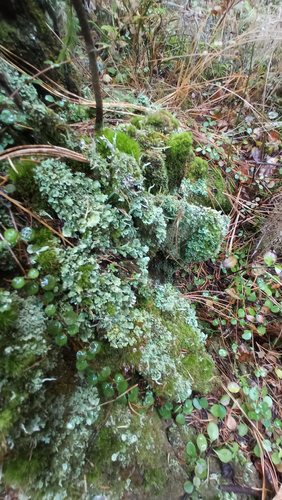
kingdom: Fungi
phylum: Ascomycota
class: Lecanoromycetes
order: Lecanorales
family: Cladoniaceae
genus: Cladonia
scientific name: Cladonia
